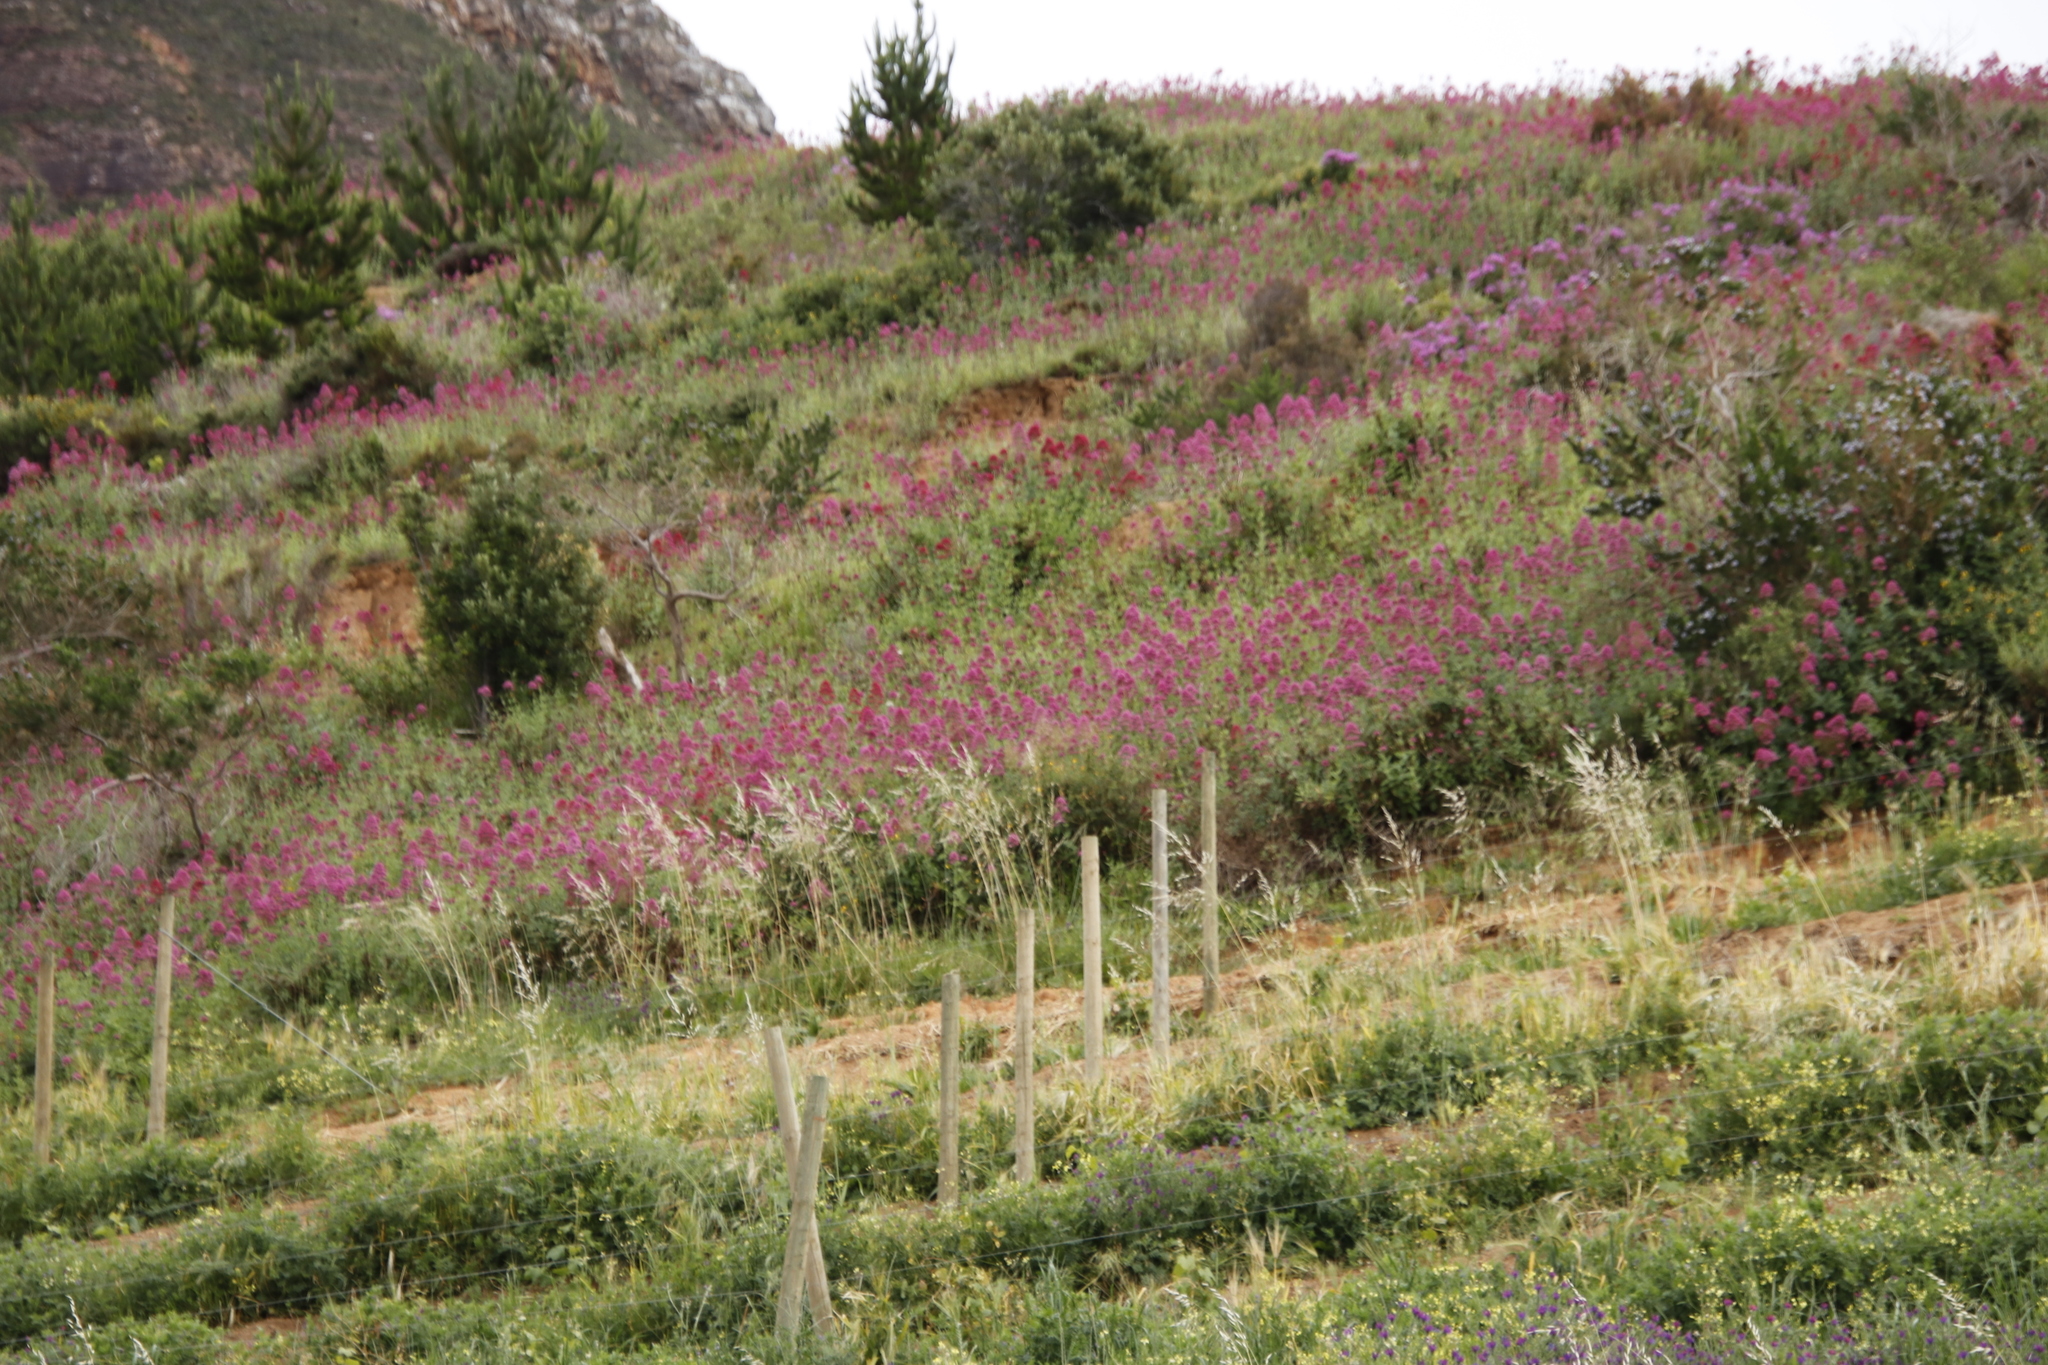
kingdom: Plantae
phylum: Tracheophyta
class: Magnoliopsida
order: Dipsacales
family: Caprifoliaceae
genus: Centranthus
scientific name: Centranthus ruber
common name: Red valerian
